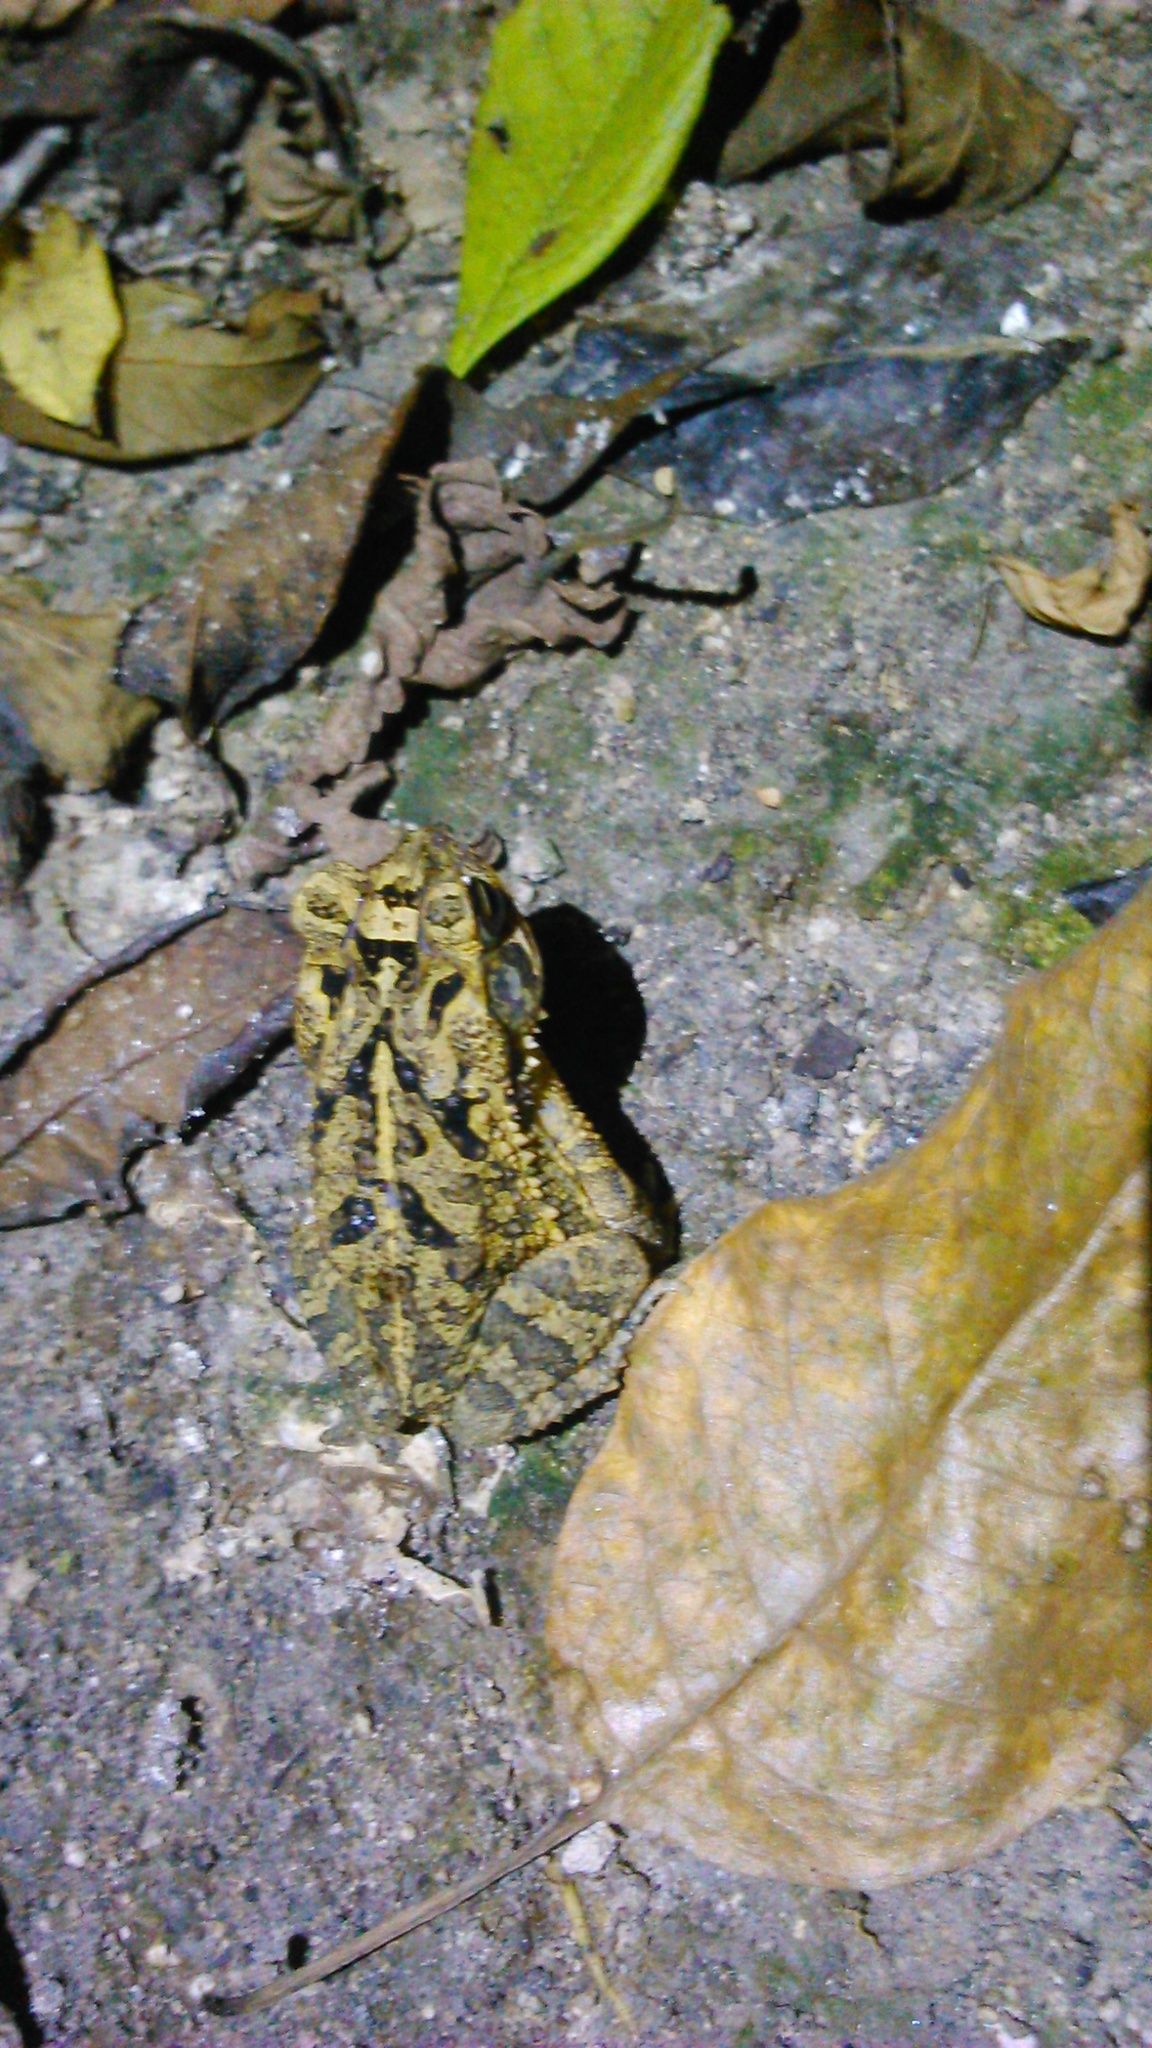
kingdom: Animalia
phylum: Chordata
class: Amphibia
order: Anura
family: Bufonidae
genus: Incilius
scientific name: Incilius valliceps
